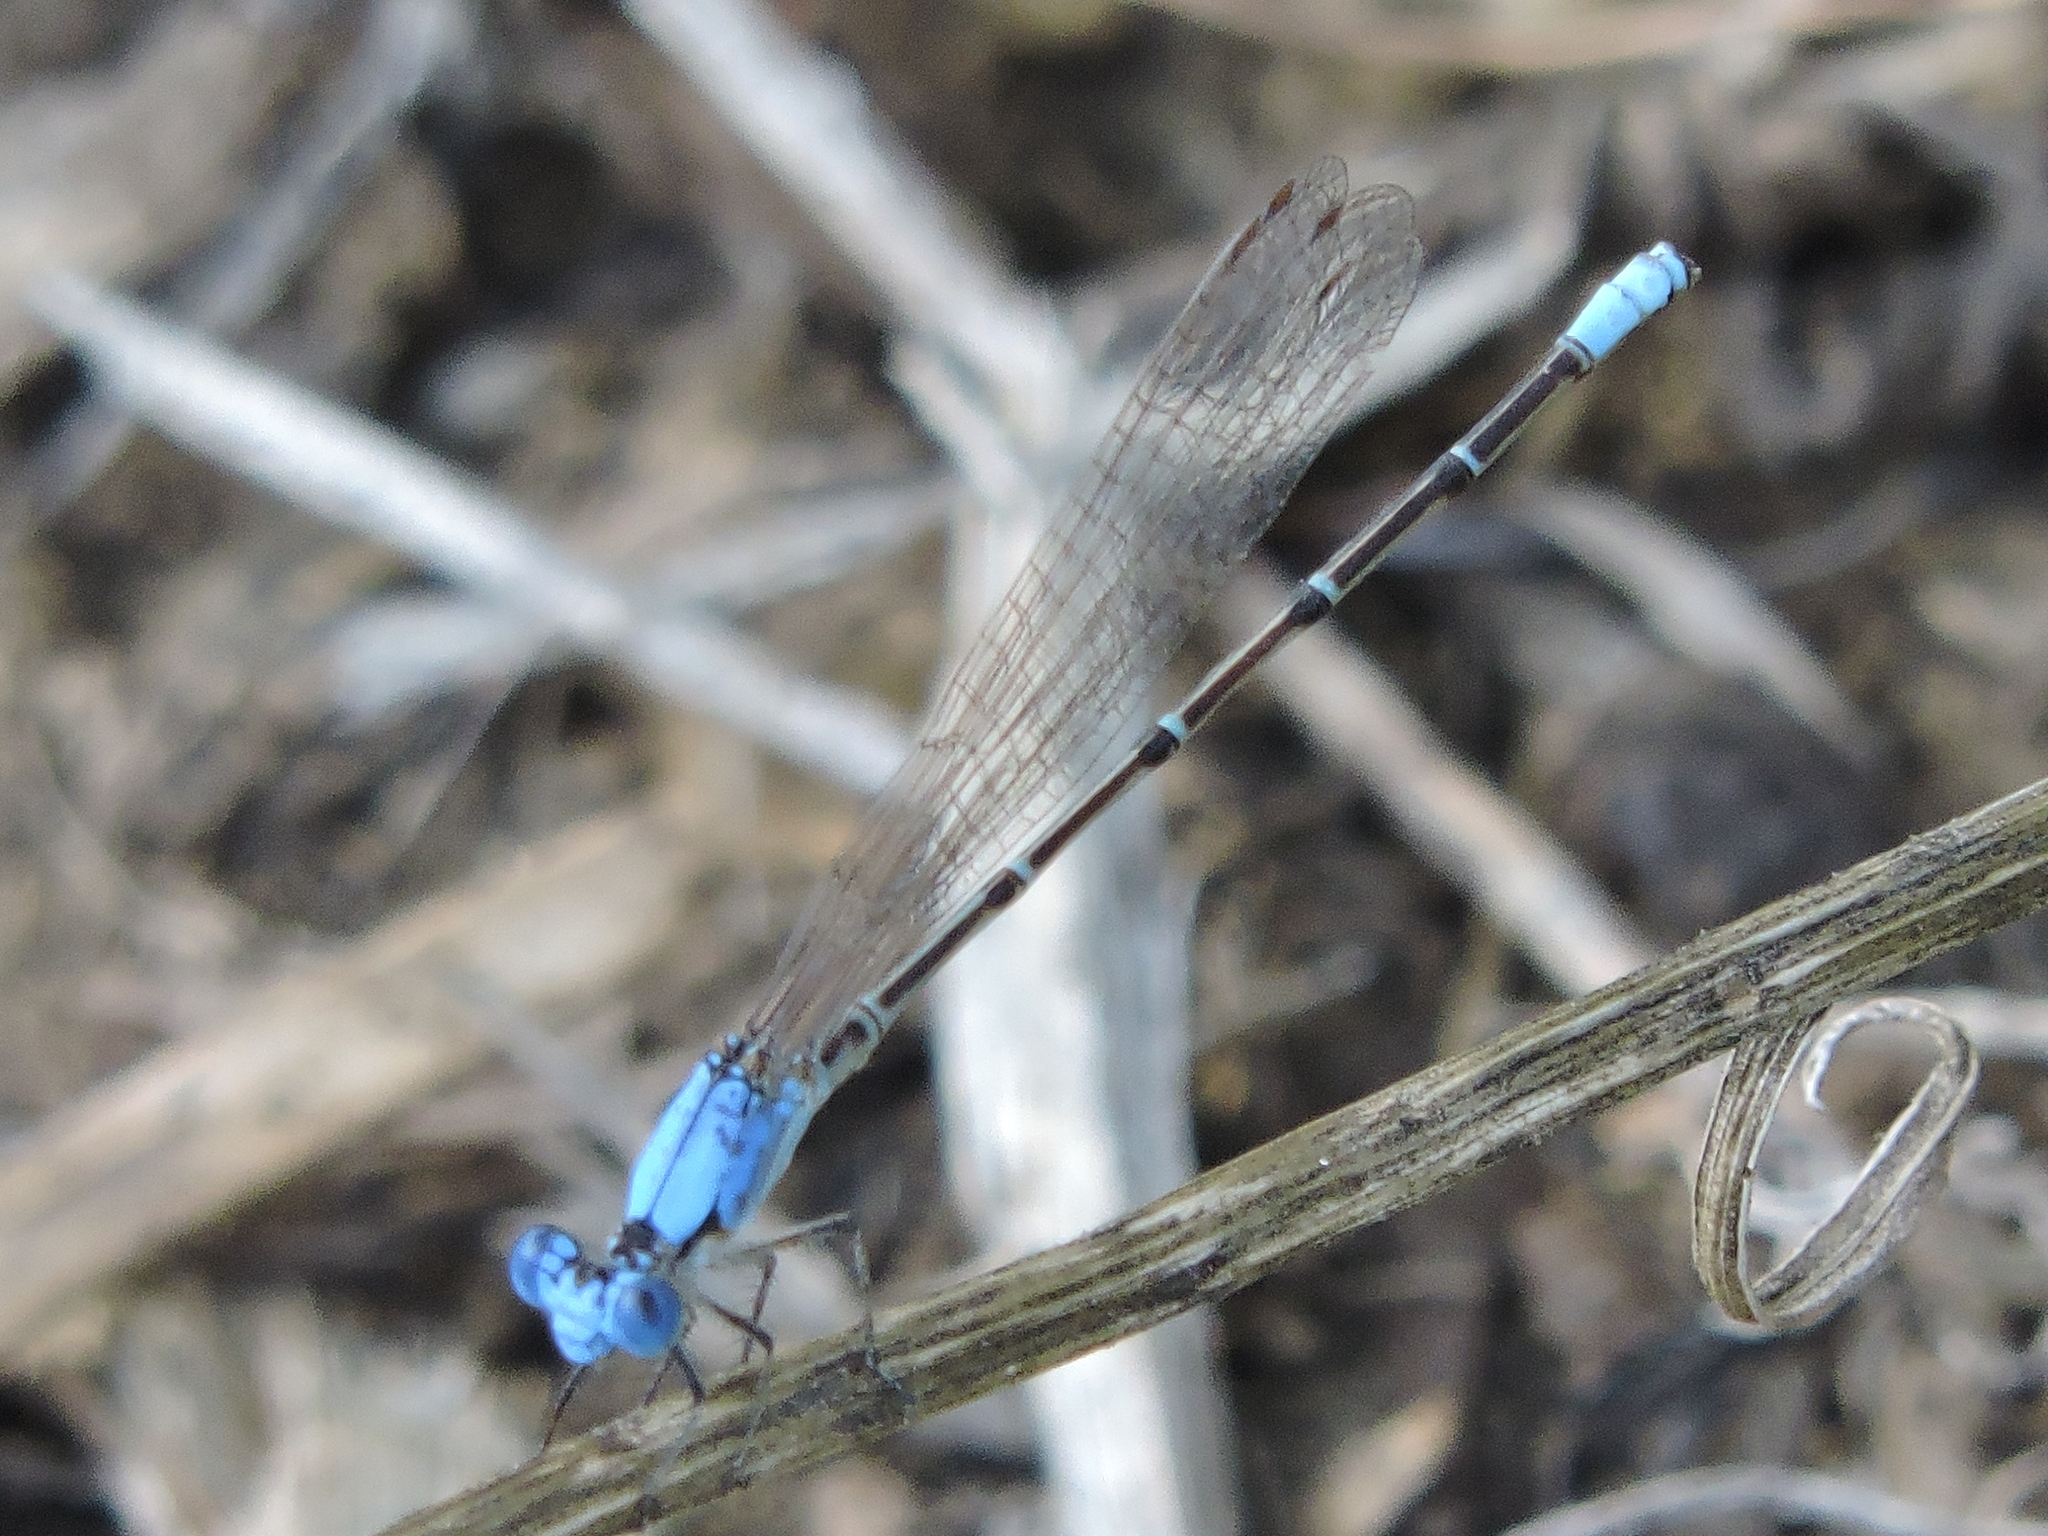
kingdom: Animalia
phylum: Arthropoda
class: Insecta
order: Odonata
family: Coenagrionidae
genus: Argia
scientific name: Argia apicalis
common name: Blue-fronted dancer
